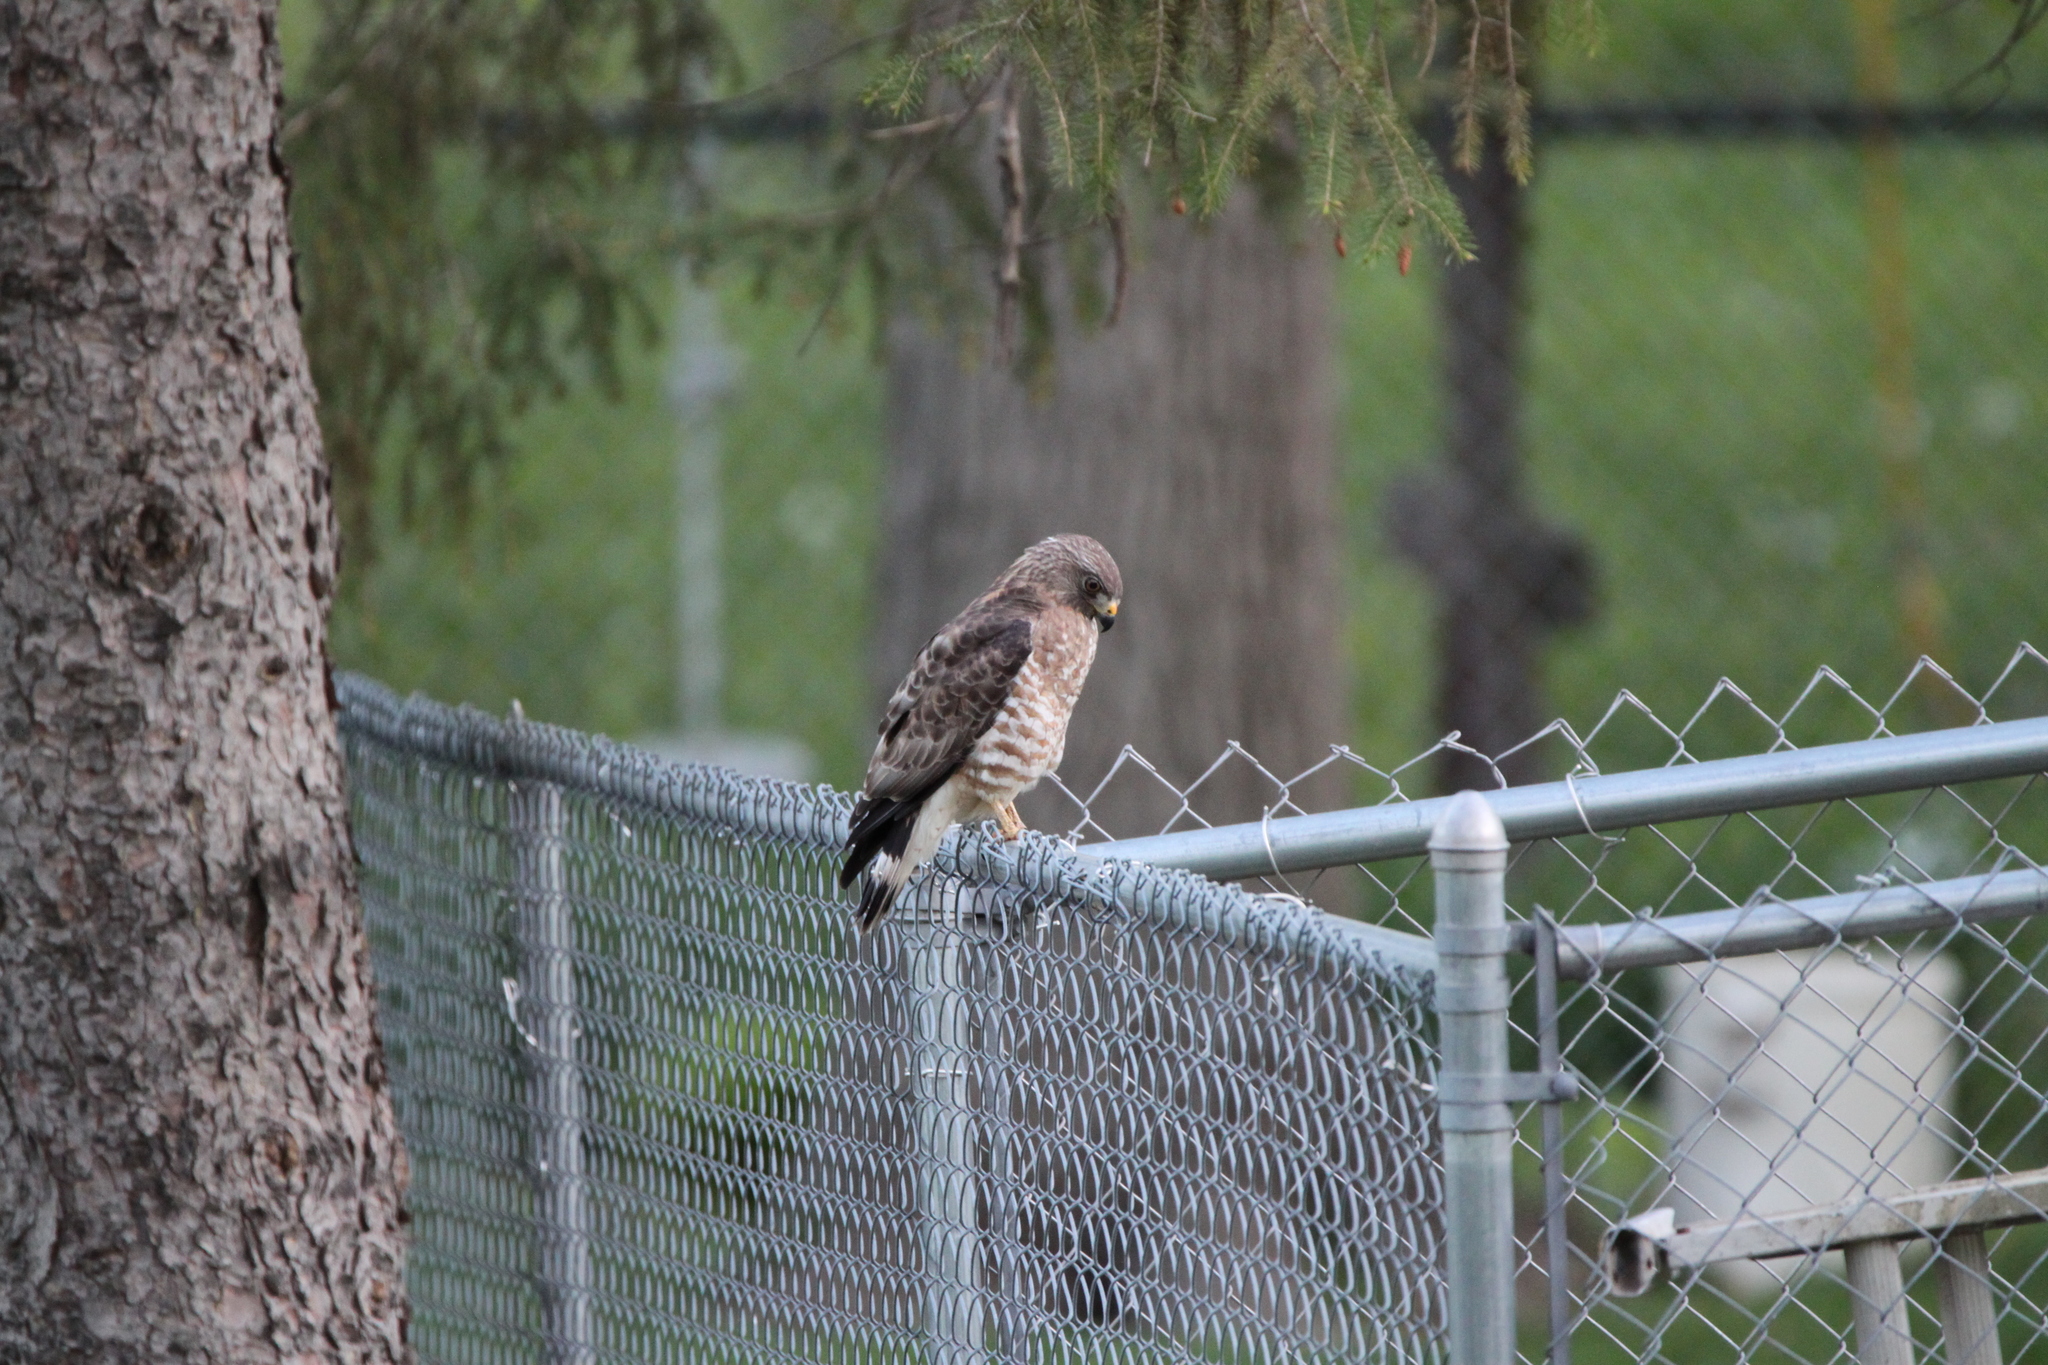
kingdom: Animalia
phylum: Chordata
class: Aves
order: Accipitriformes
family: Accipitridae
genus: Buteo
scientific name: Buteo platypterus
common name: Broad-winged hawk
